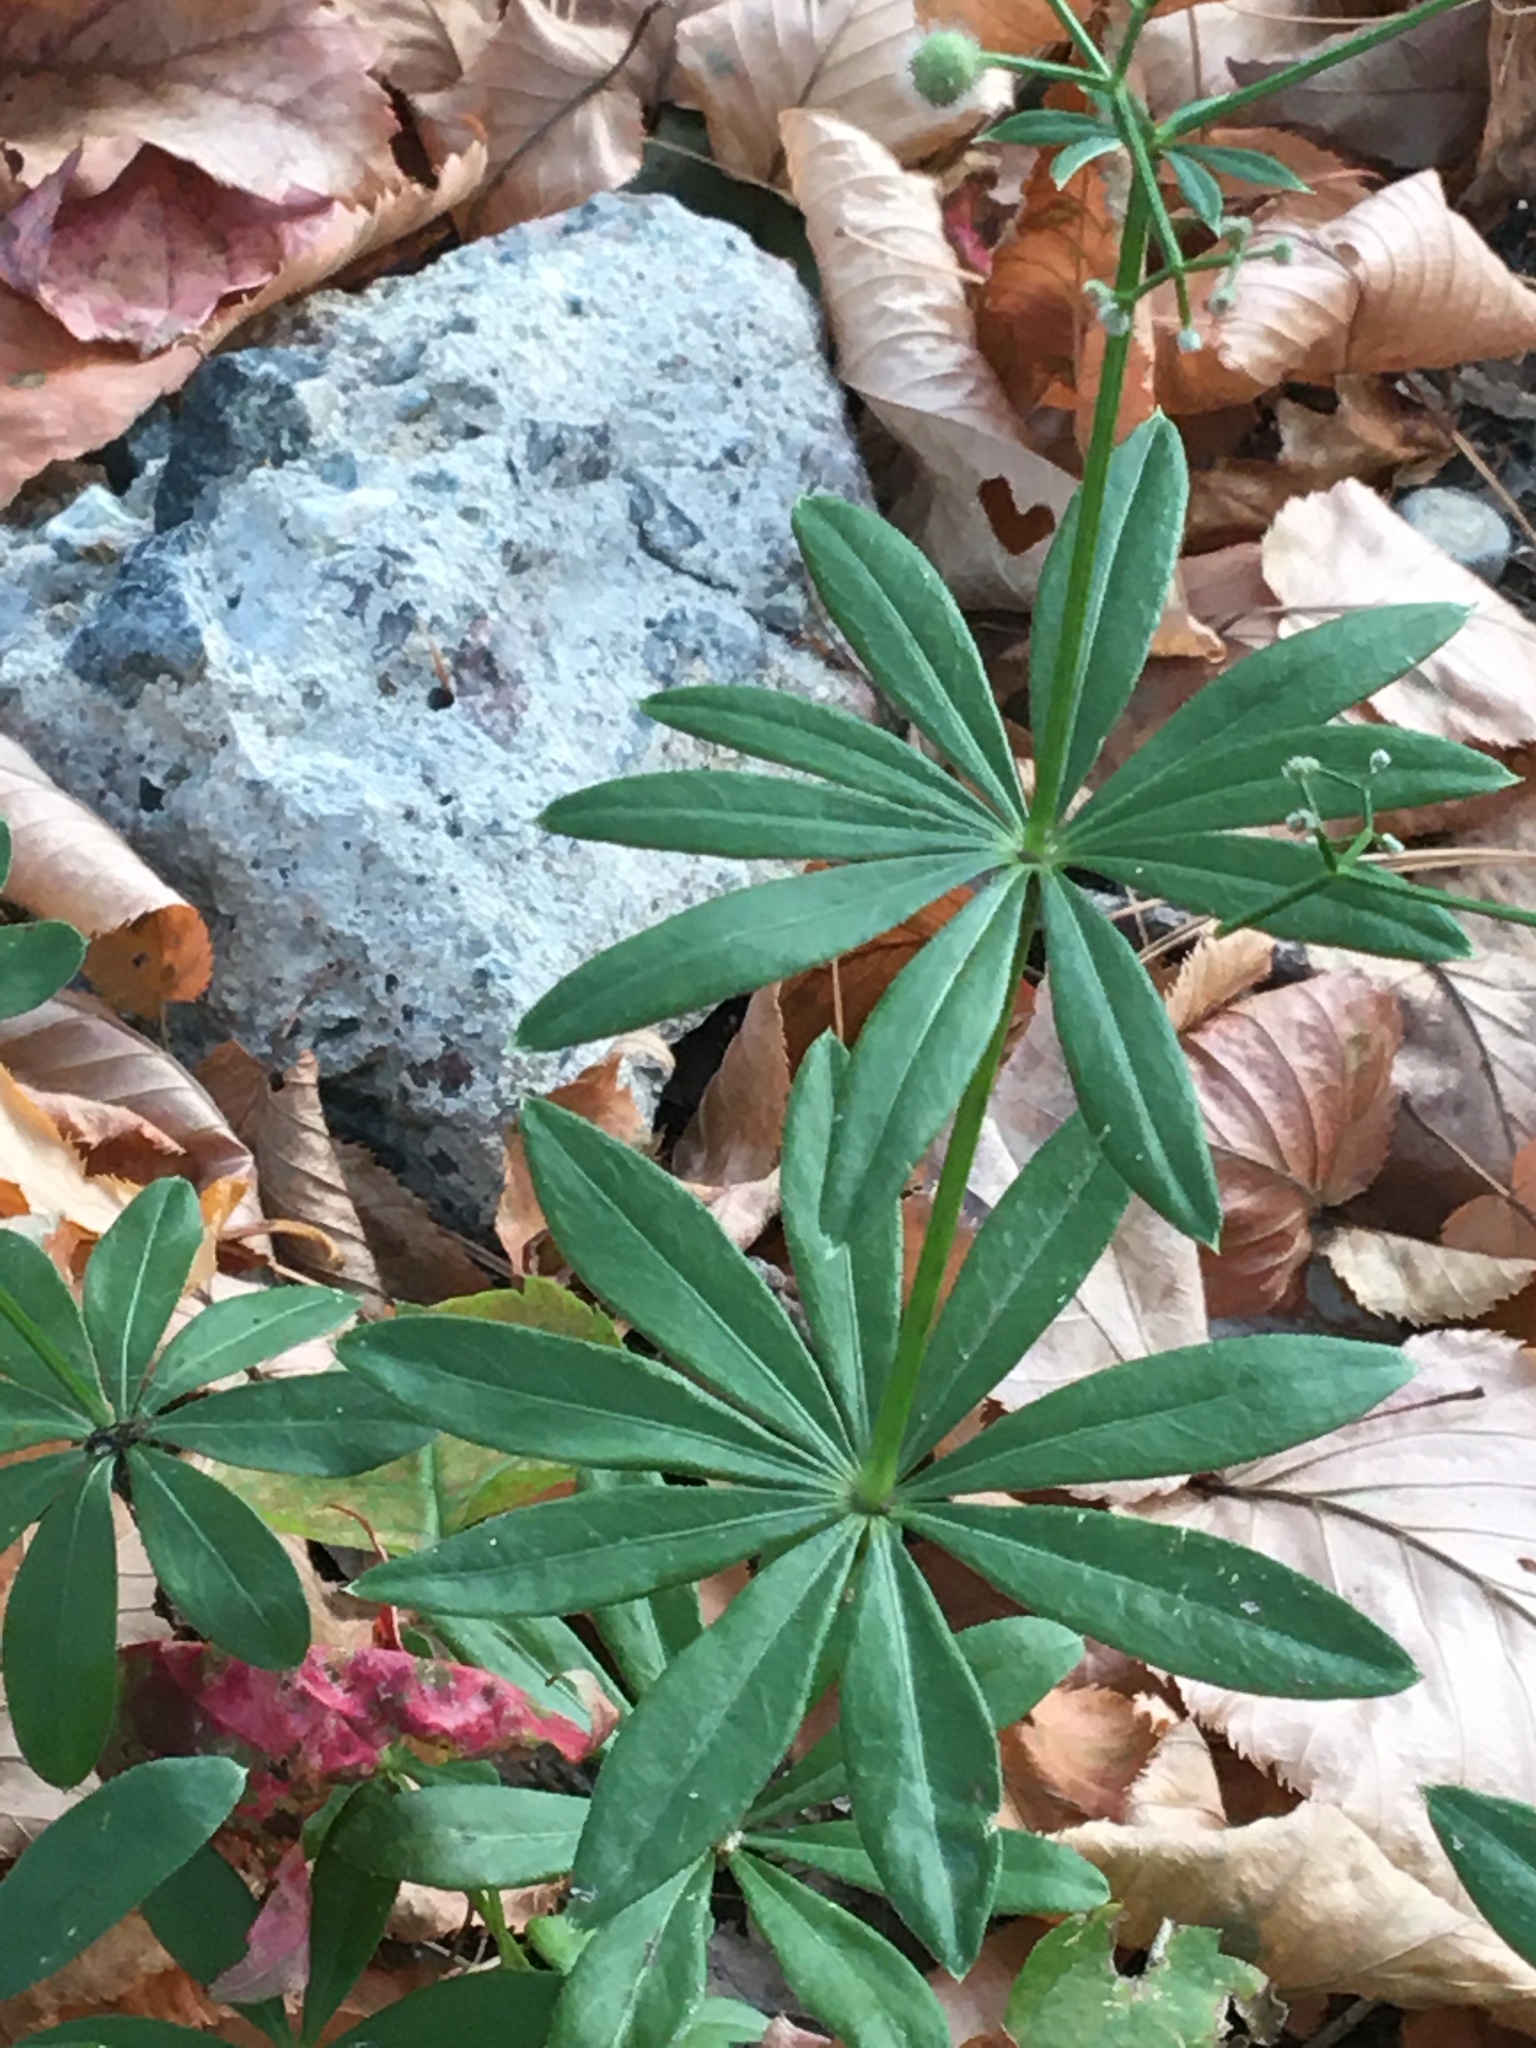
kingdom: Plantae
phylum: Tracheophyta
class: Magnoliopsida
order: Gentianales
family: Rubiaceae
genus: Galium
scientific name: Galium odoratum
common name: Sweet woodruff
